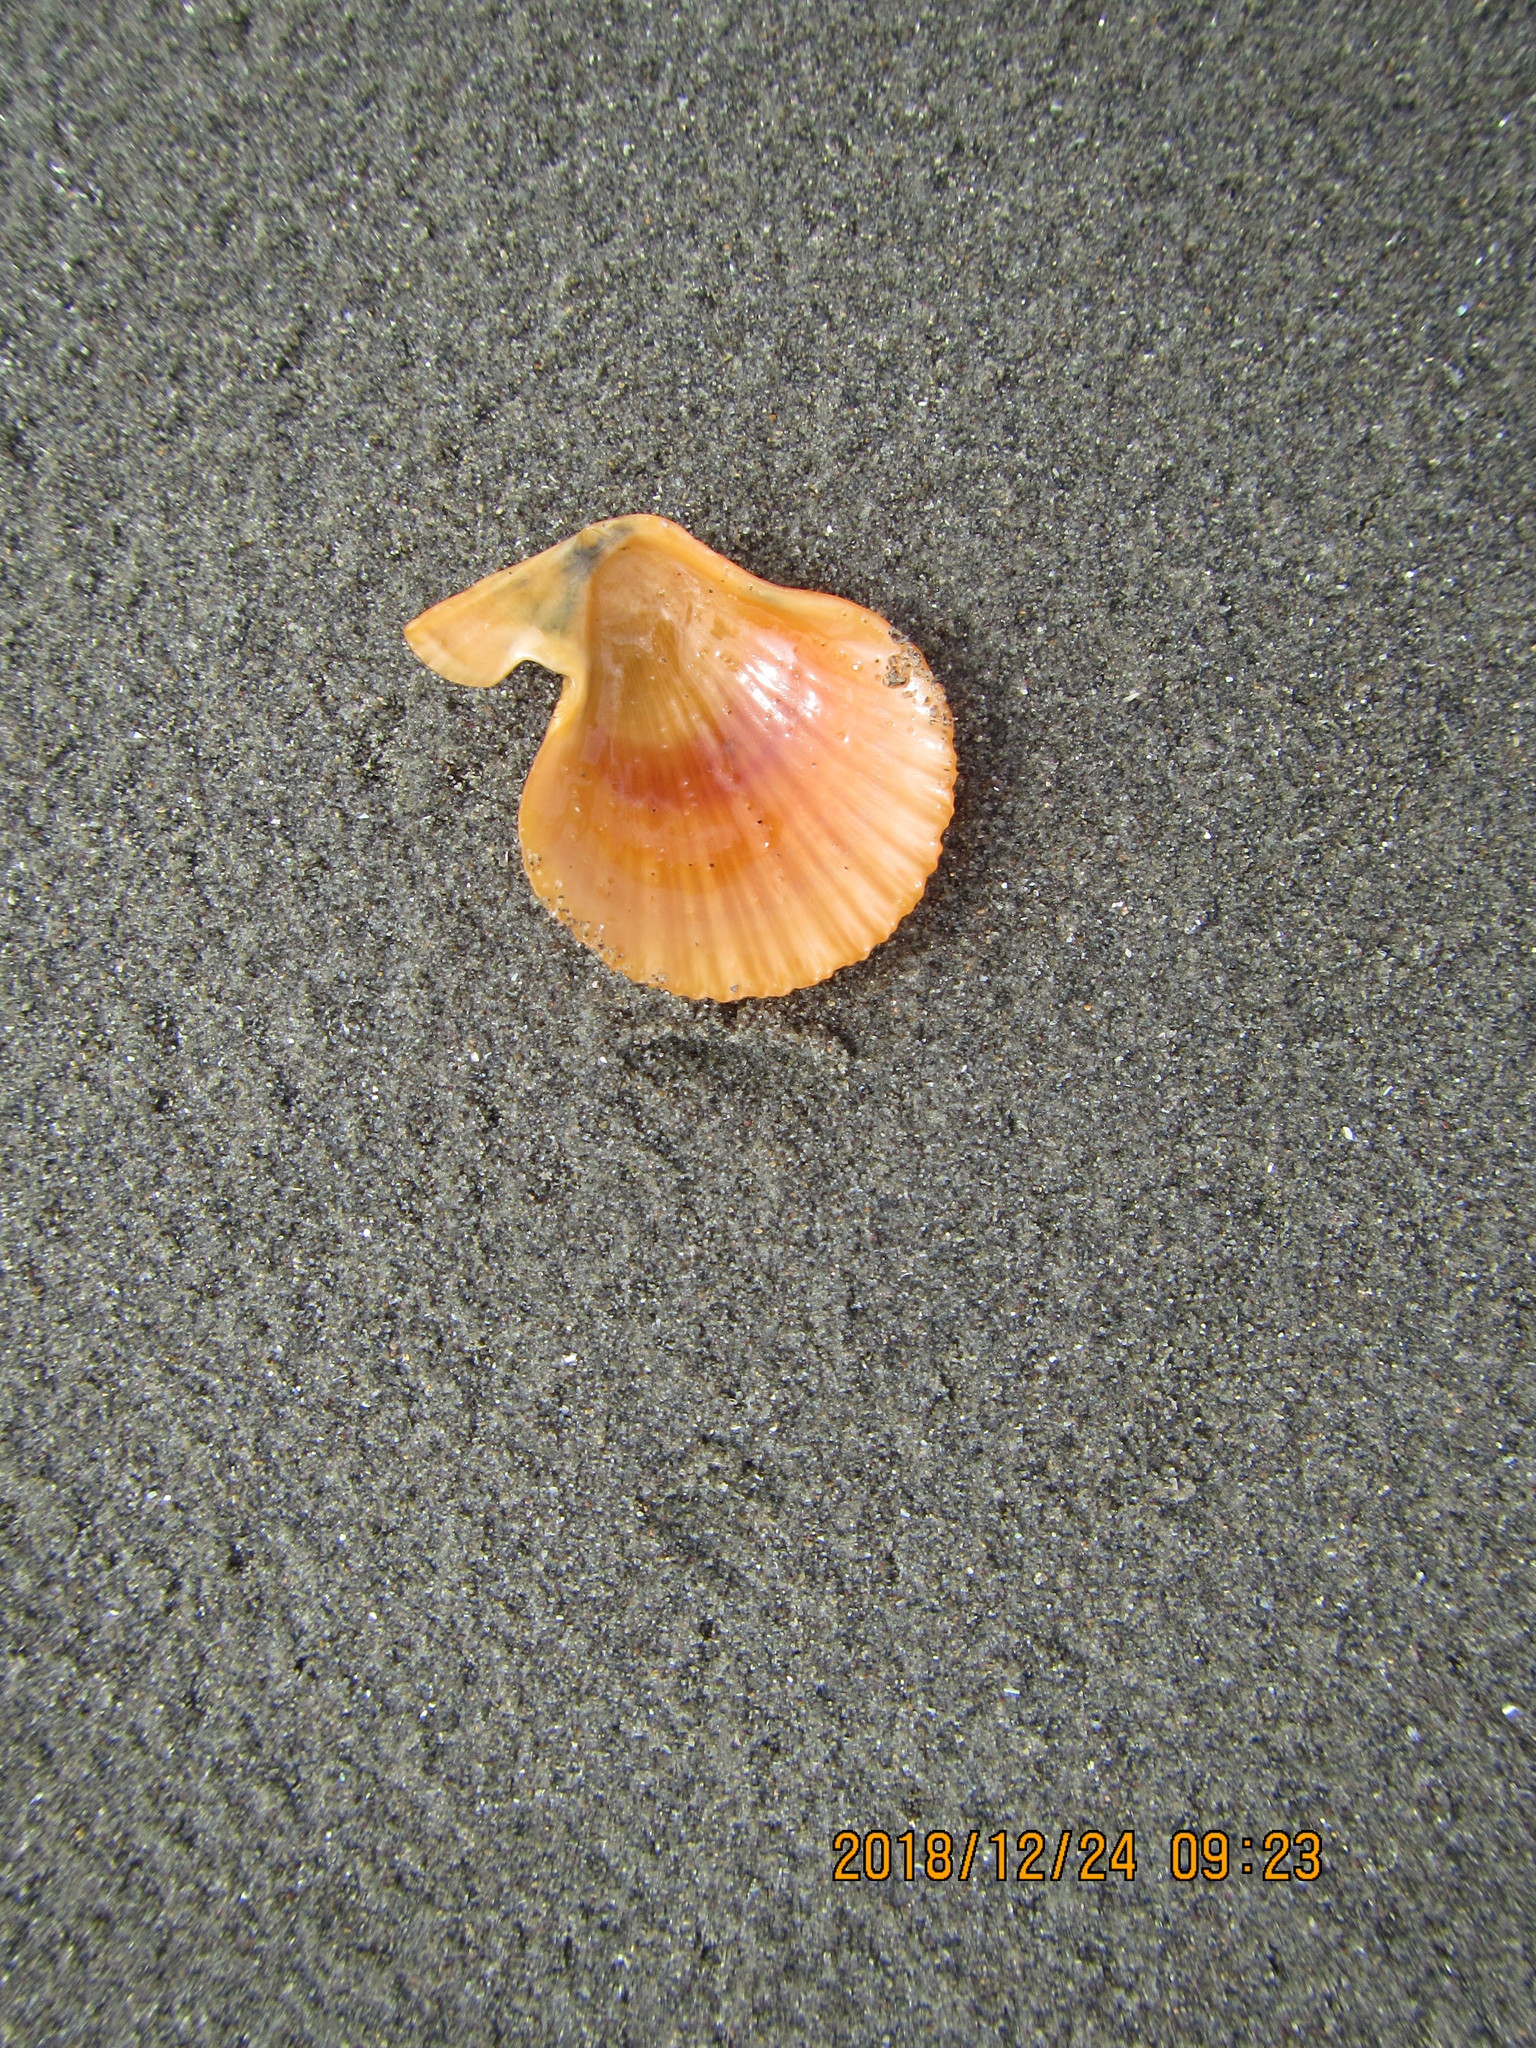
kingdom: Animalia
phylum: Mollusca
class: Bivalvia
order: Pectinida
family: Pectinidae
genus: Talochlamys
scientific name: Talochlamys zelandiae
